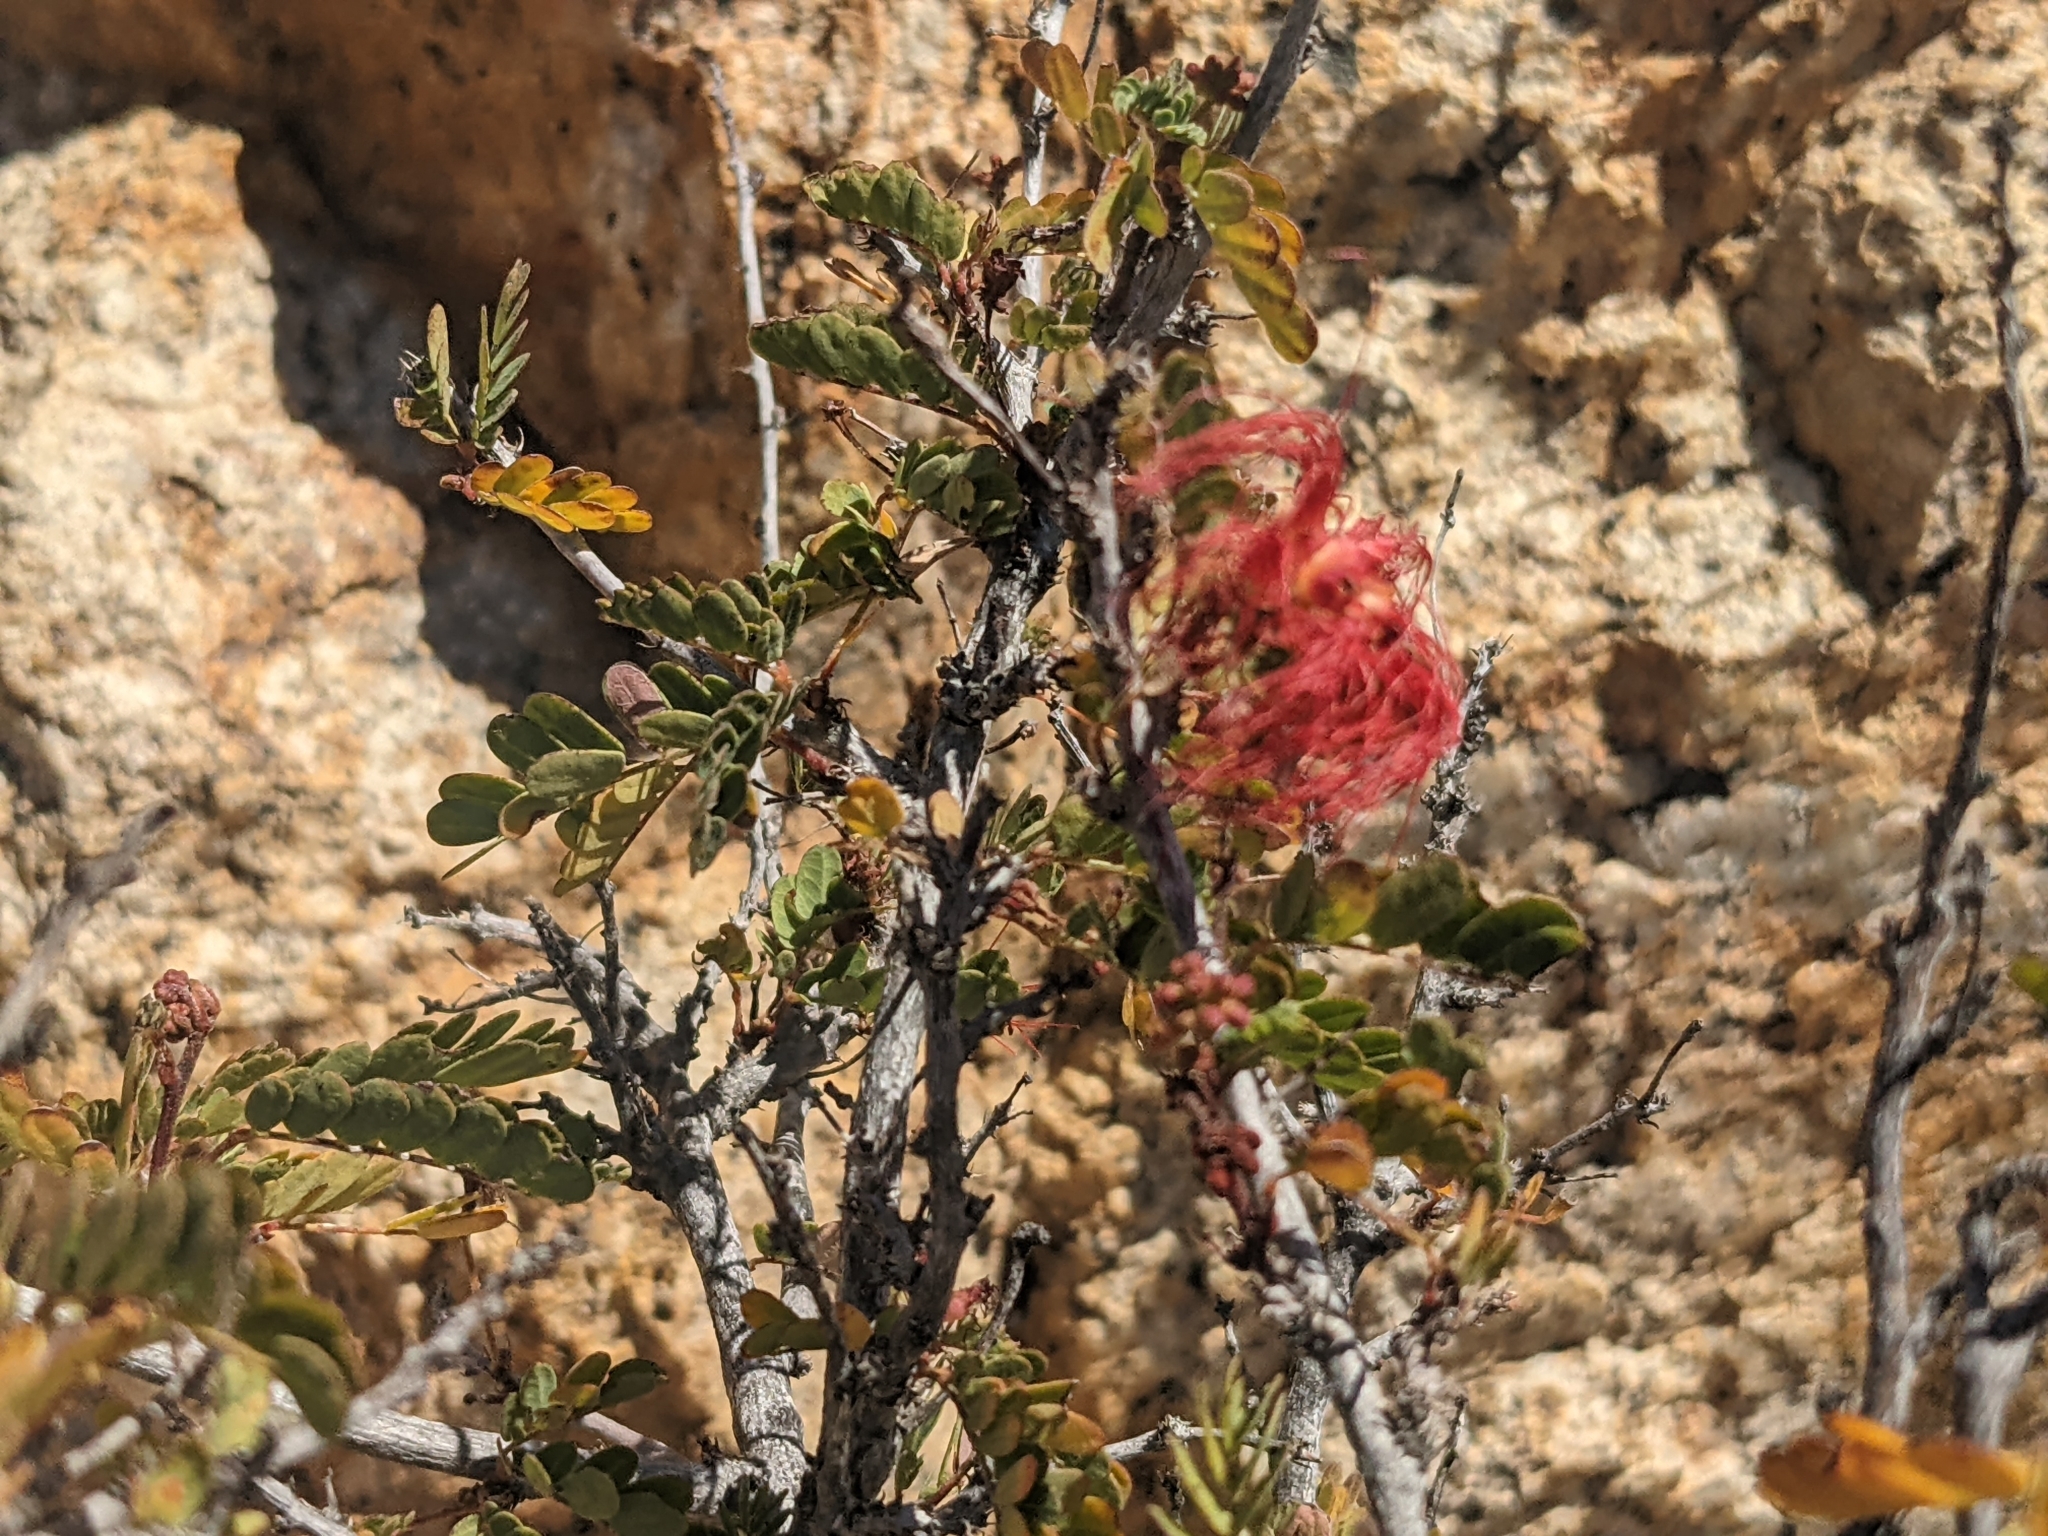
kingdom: Plantae
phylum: Tracheophyta
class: Magnoliopsida
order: Fabales
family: Fabaceae
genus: Calliandra
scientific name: Calliandra californica
